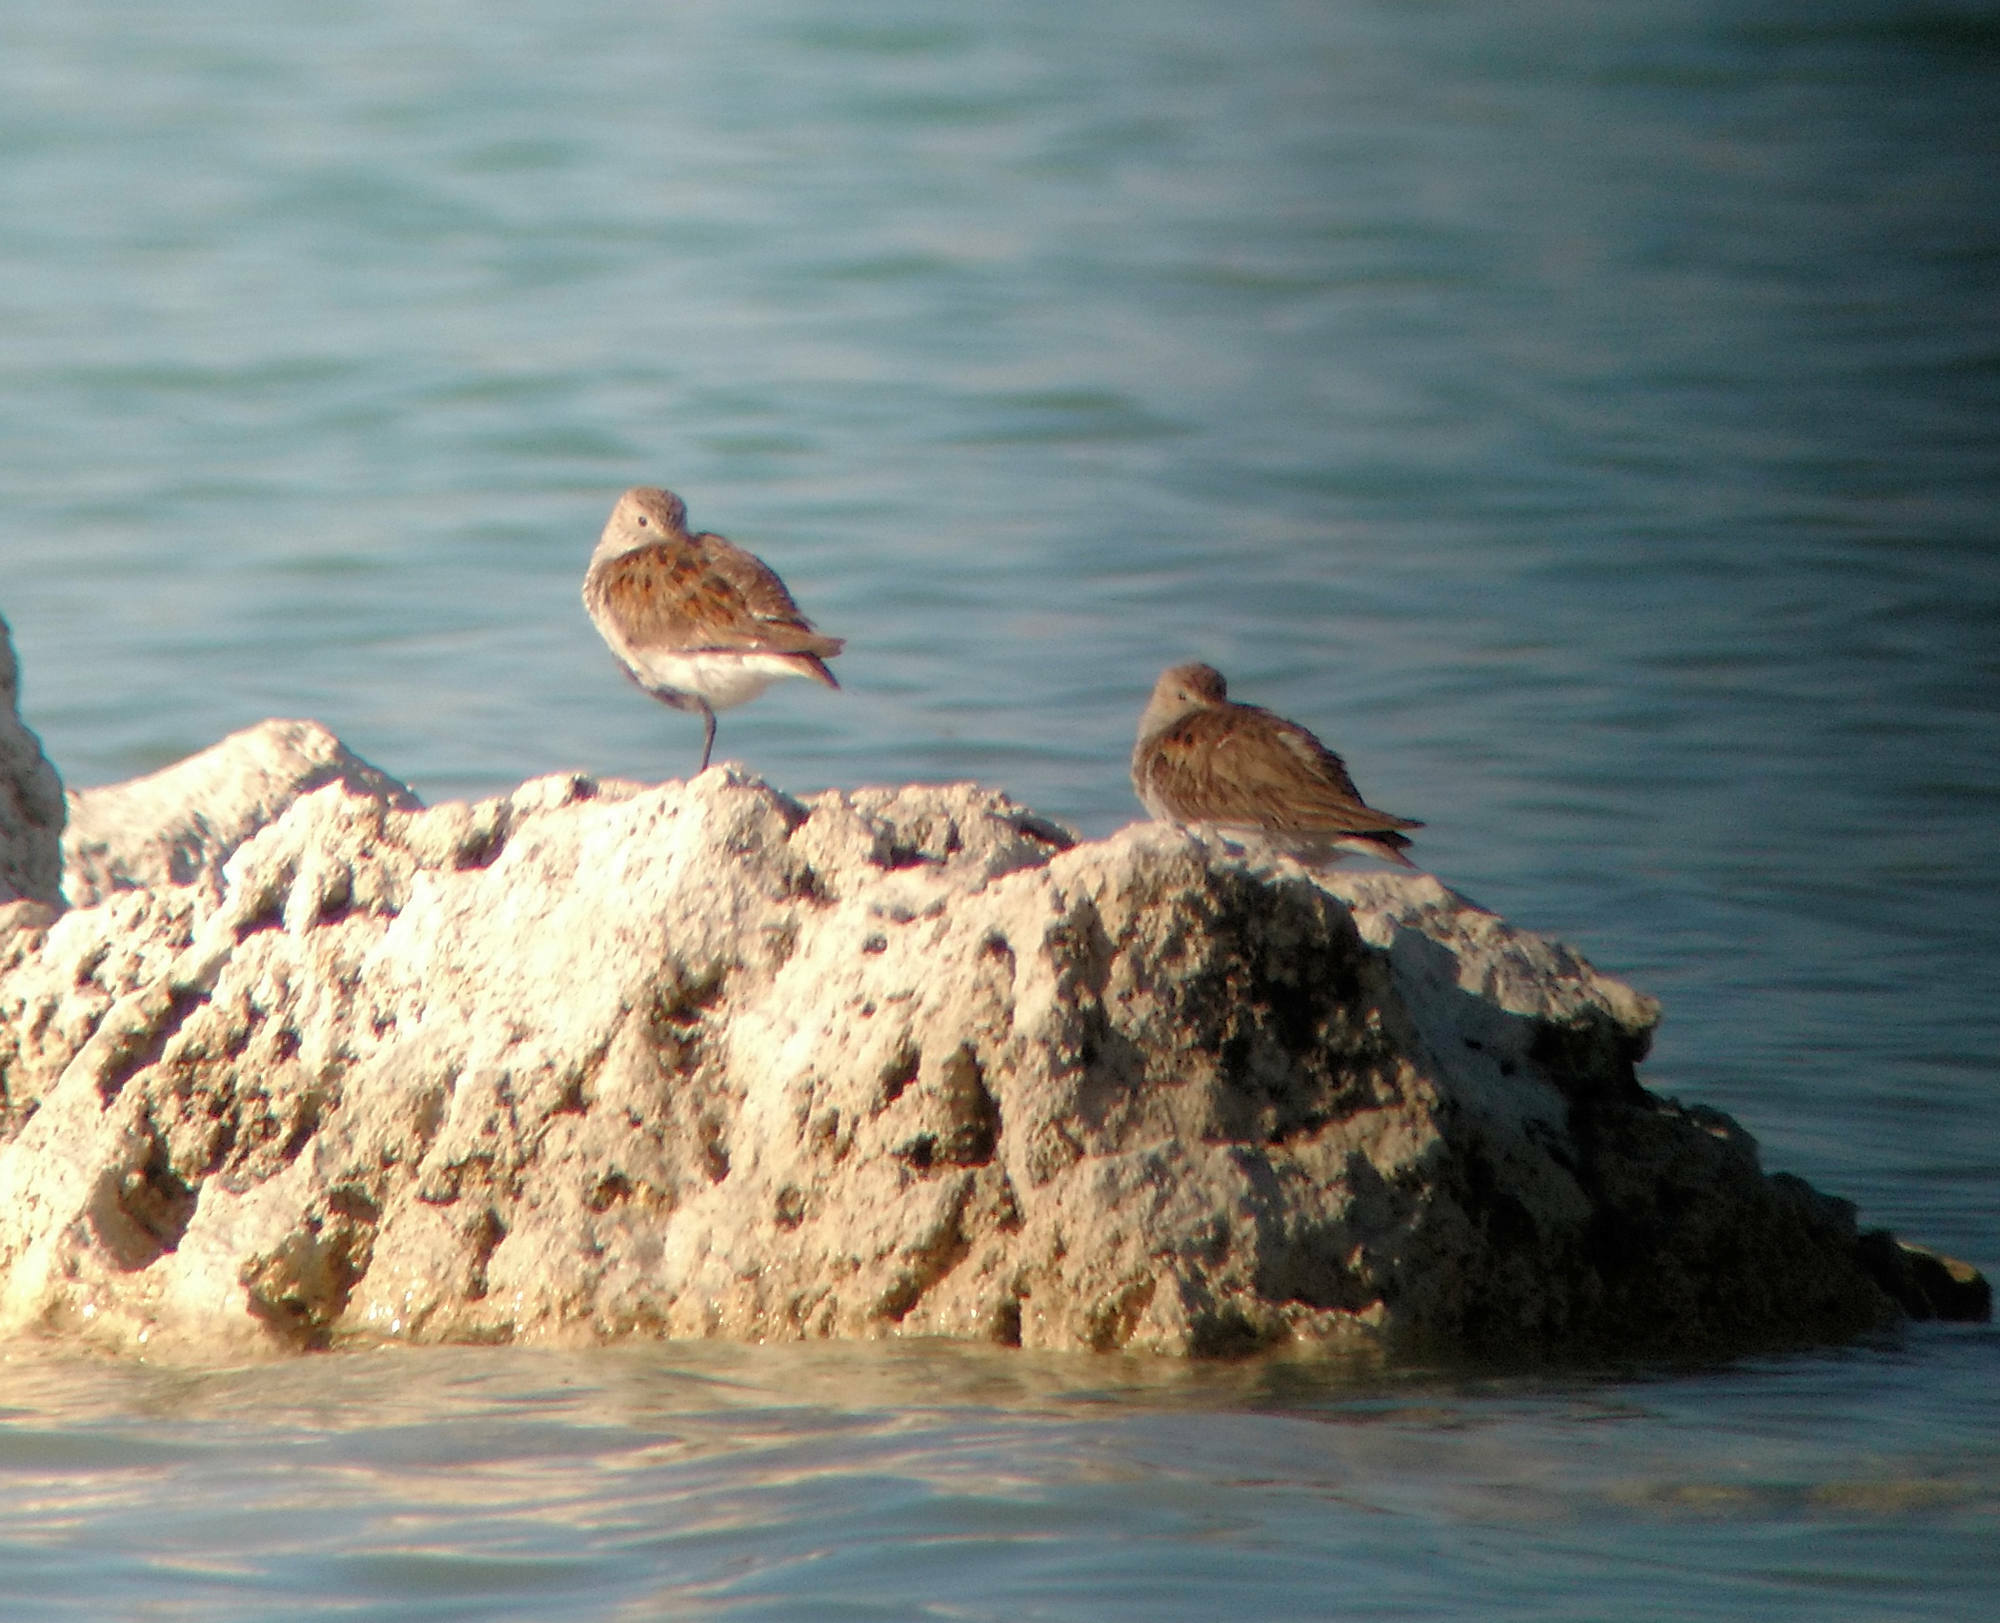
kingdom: Animalia
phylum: Chordata
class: Aves
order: Charadriiformes
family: Scolopacidae
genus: Calidris
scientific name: Calidris alpina
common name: Dunlin
